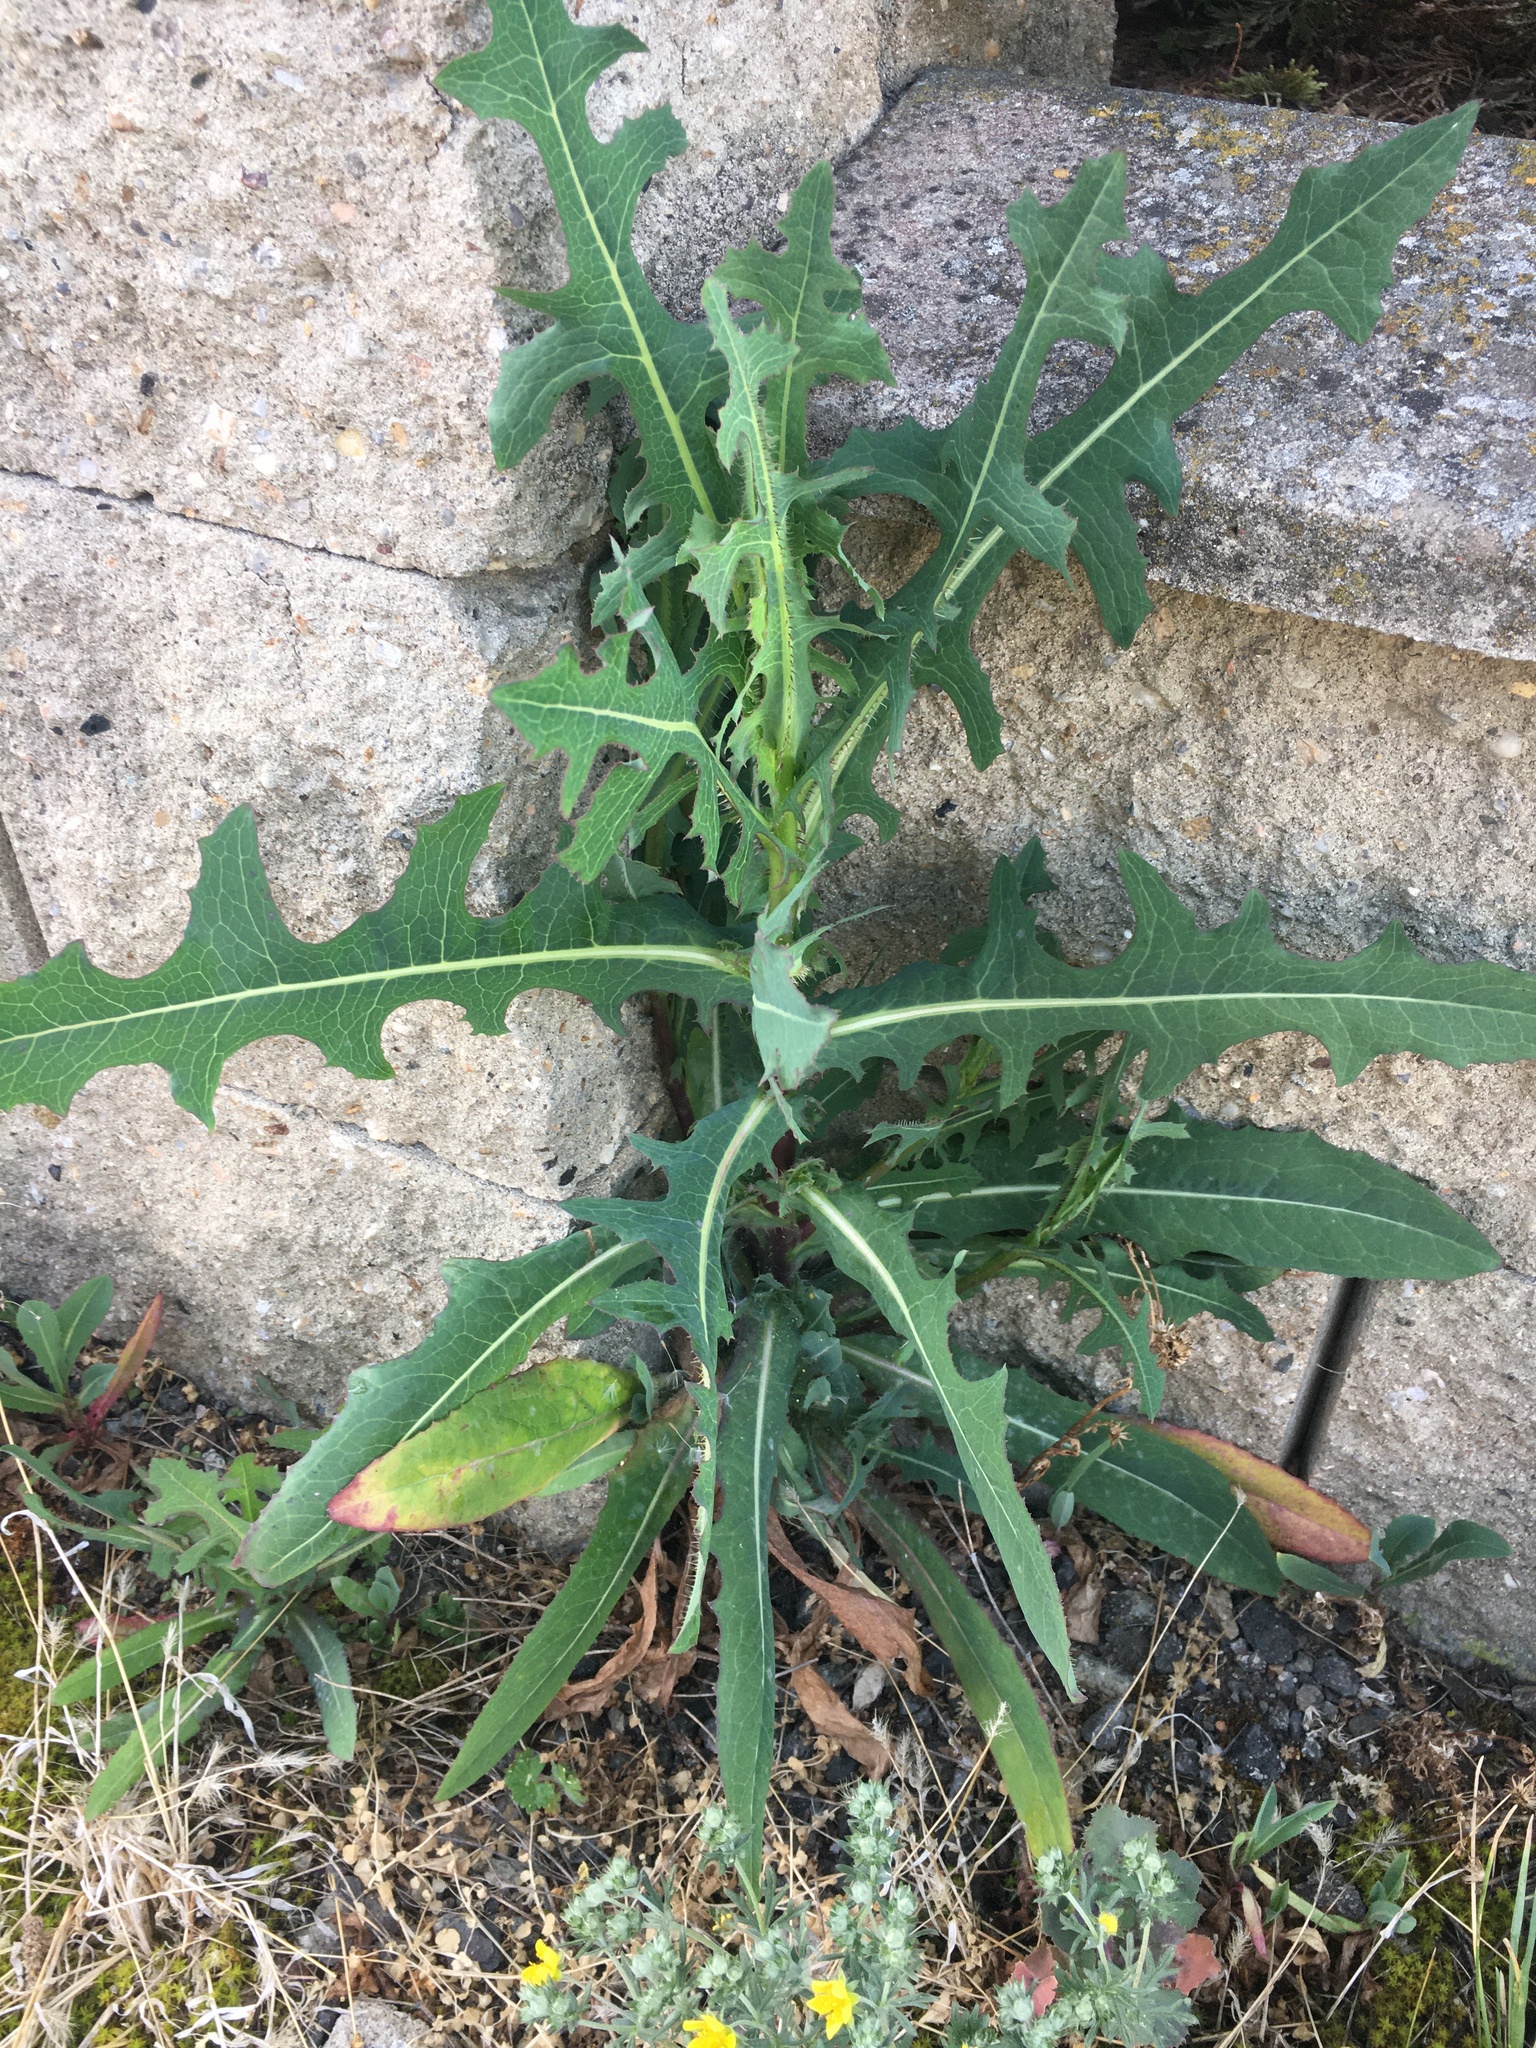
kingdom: Plantae
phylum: Tracheophyta
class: Magnoliopsida
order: Asterales
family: Asteraceae
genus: Lactuca
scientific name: Lactuca serriola
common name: Prickly lettuce
